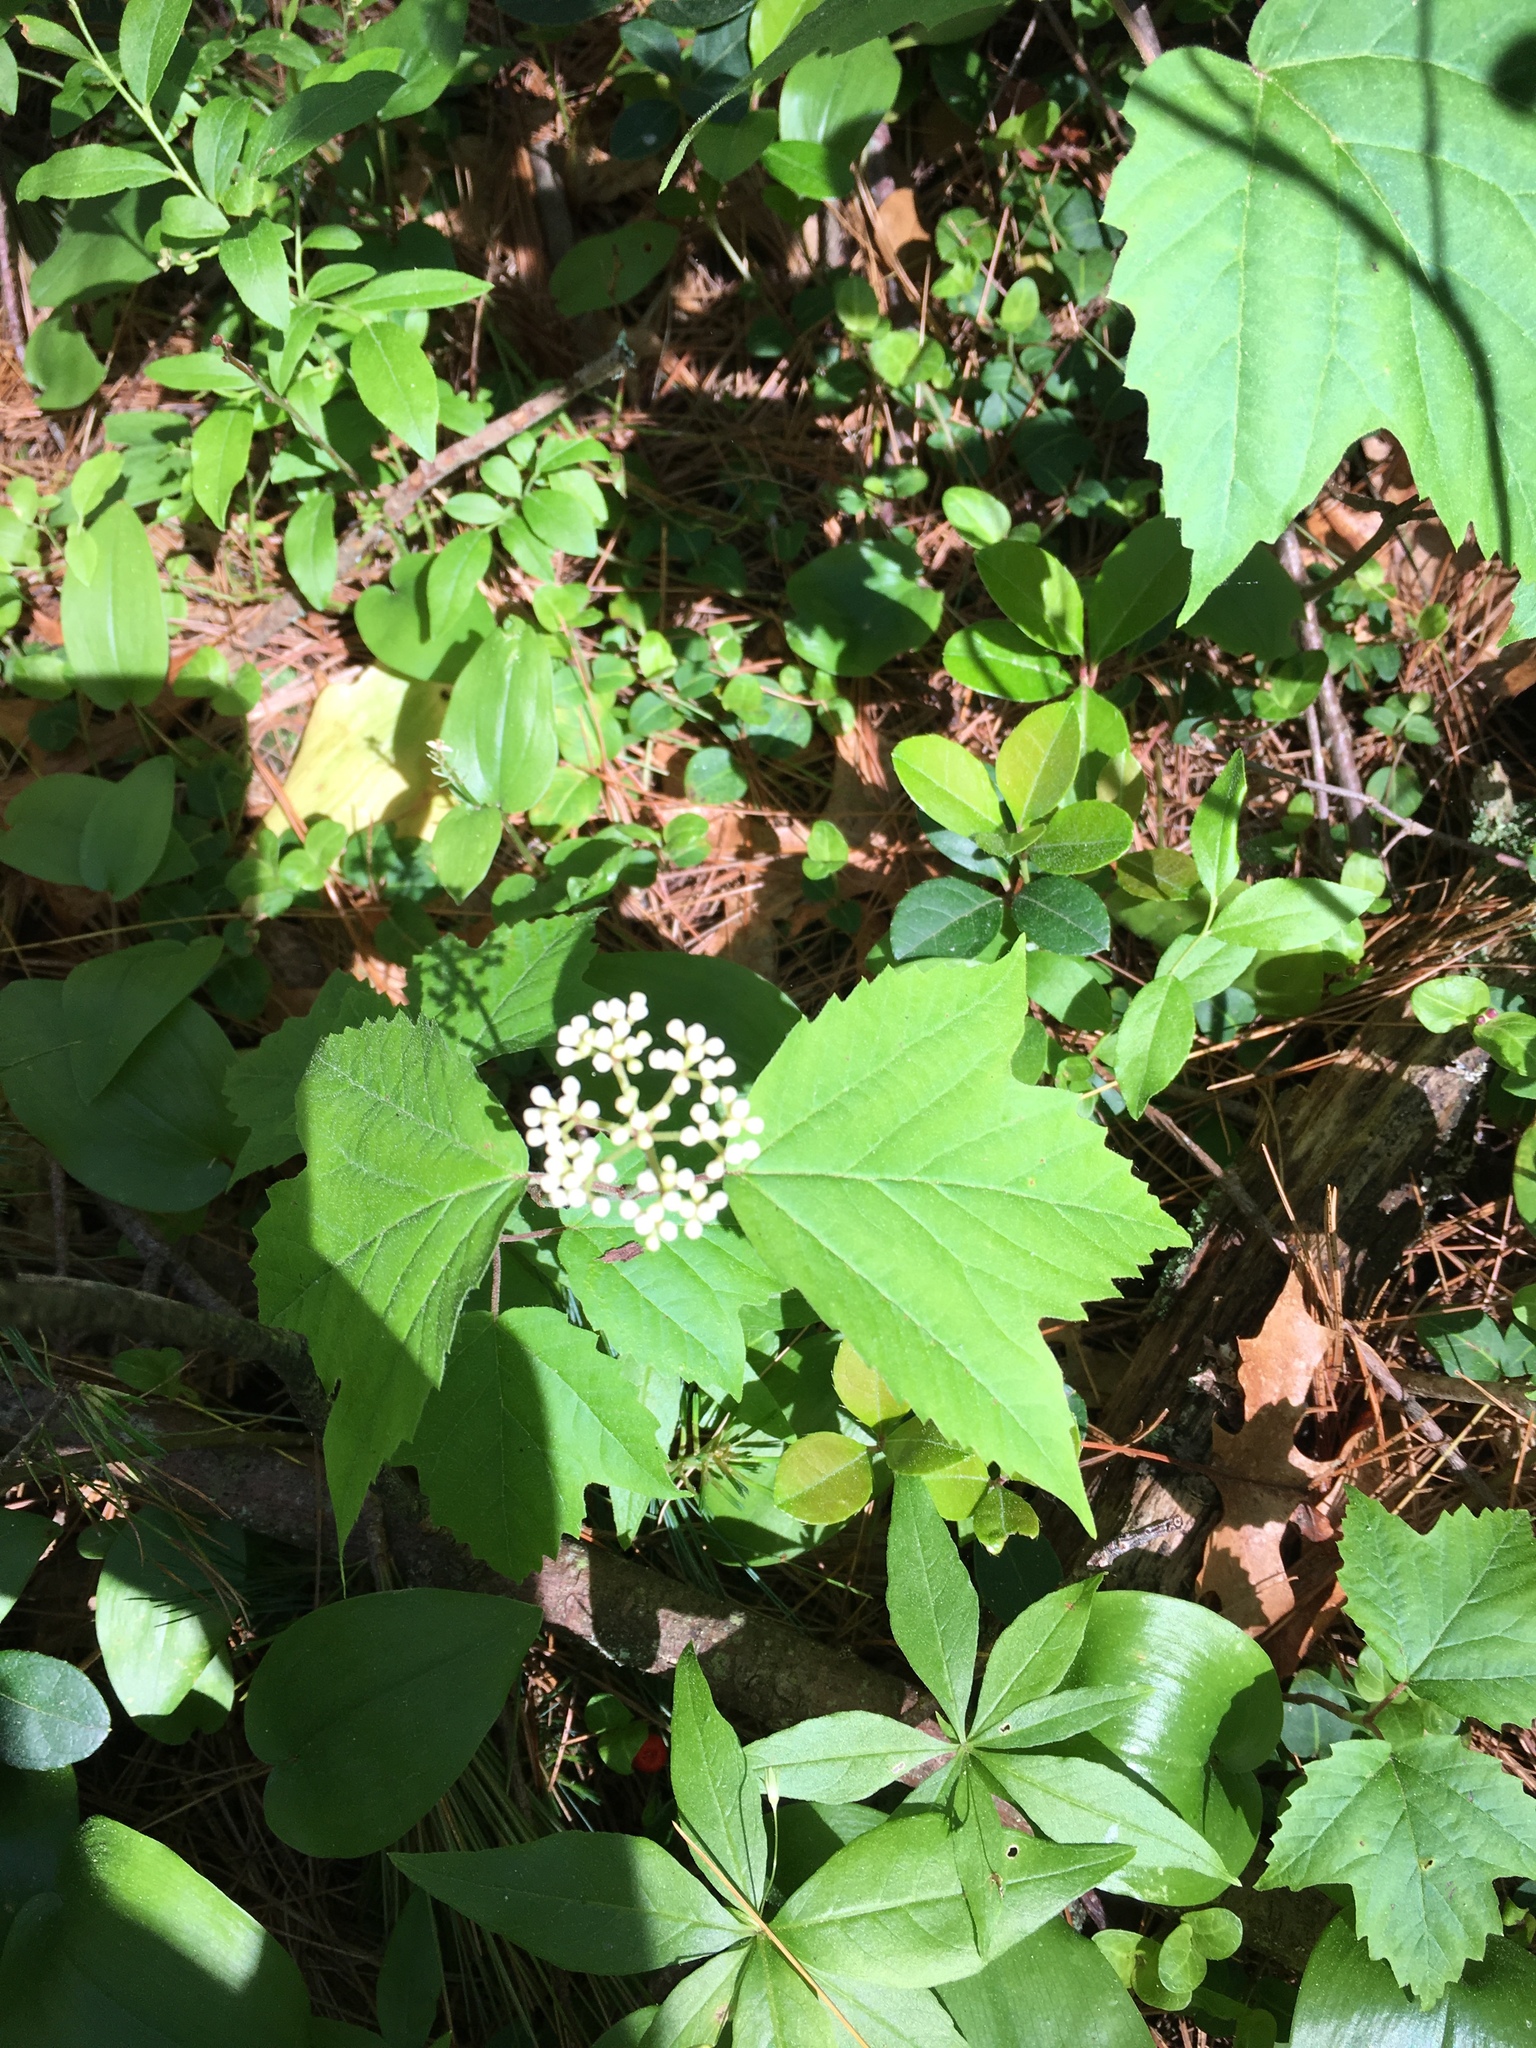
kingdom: Plantae
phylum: Tracheophyta
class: Magnoliopsida
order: Dipsacales
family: Viburnaceae
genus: Viburnum
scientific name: Viburnum acerifolium
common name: Dockmackie
